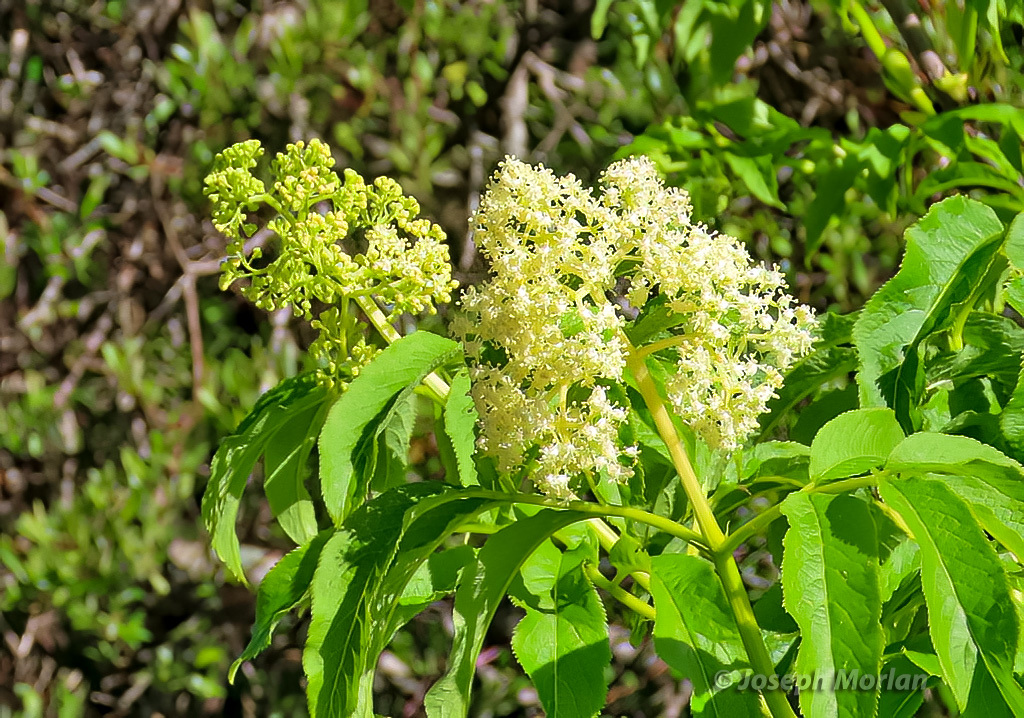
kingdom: Plantae
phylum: Tracheophyta
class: Magnoliopsida
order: Dipsacales
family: Viburnaceae
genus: Sambucus
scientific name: Sambucus racemosa
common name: Red-berried elder
